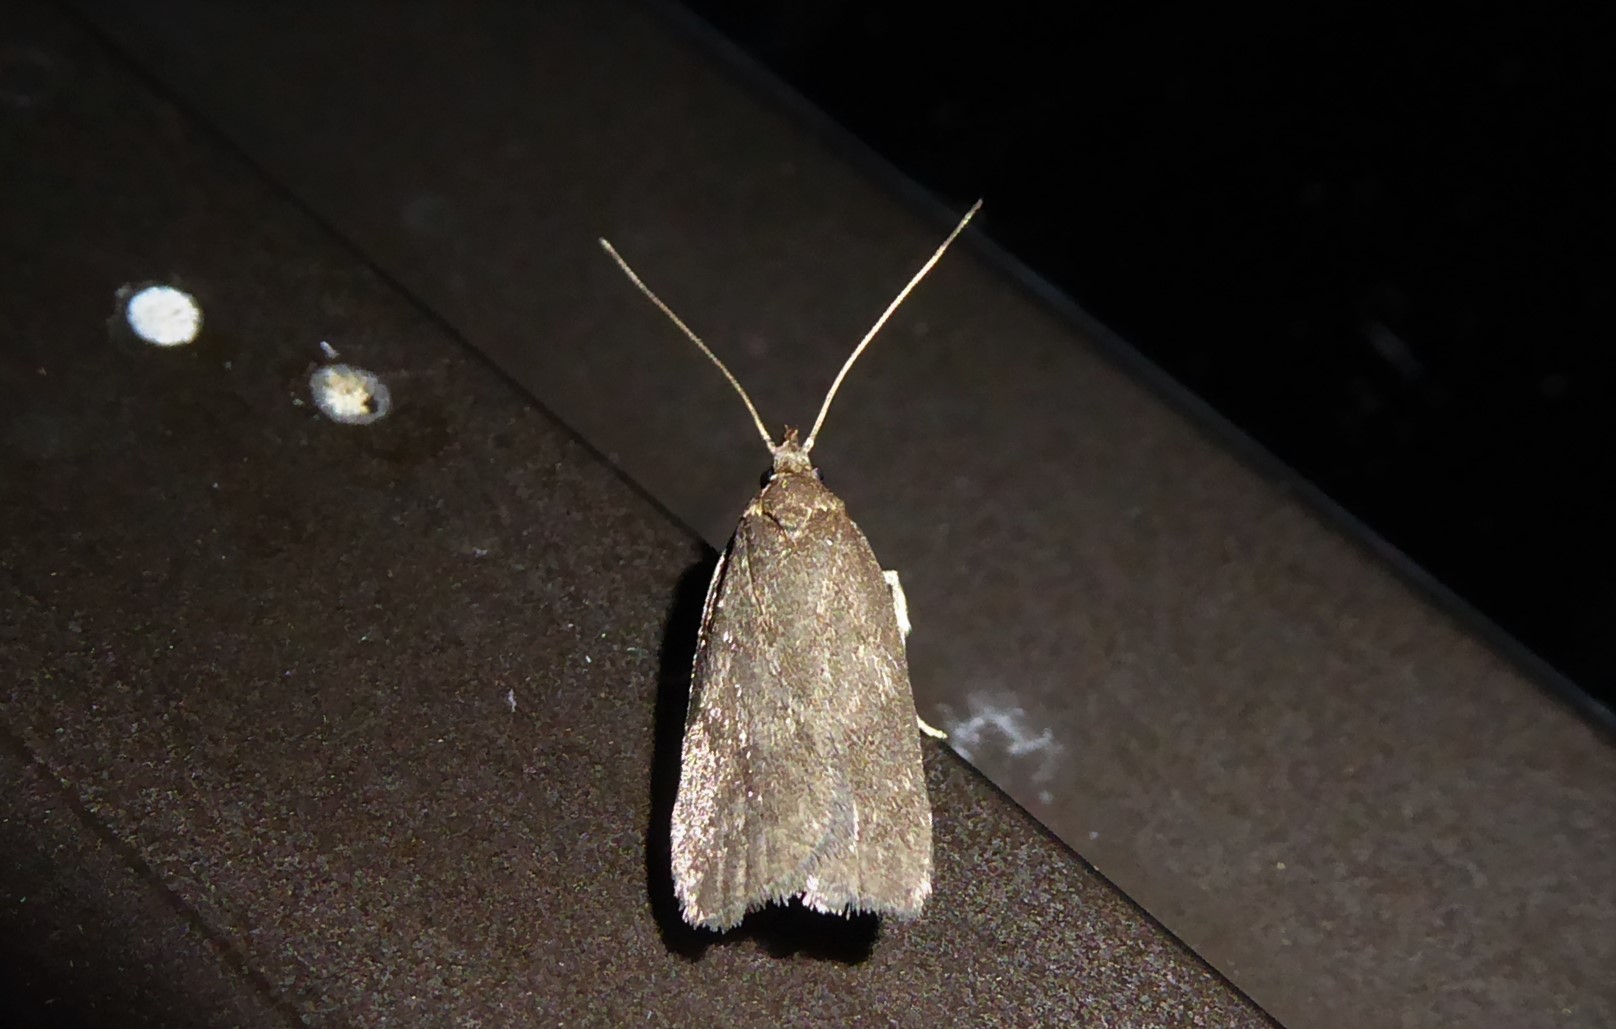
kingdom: Animalia
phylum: Arthropoda
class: Insecta
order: Lepidoptera
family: Depressariidae
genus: Phaeosaces
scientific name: Phaeosaces apocrypta
